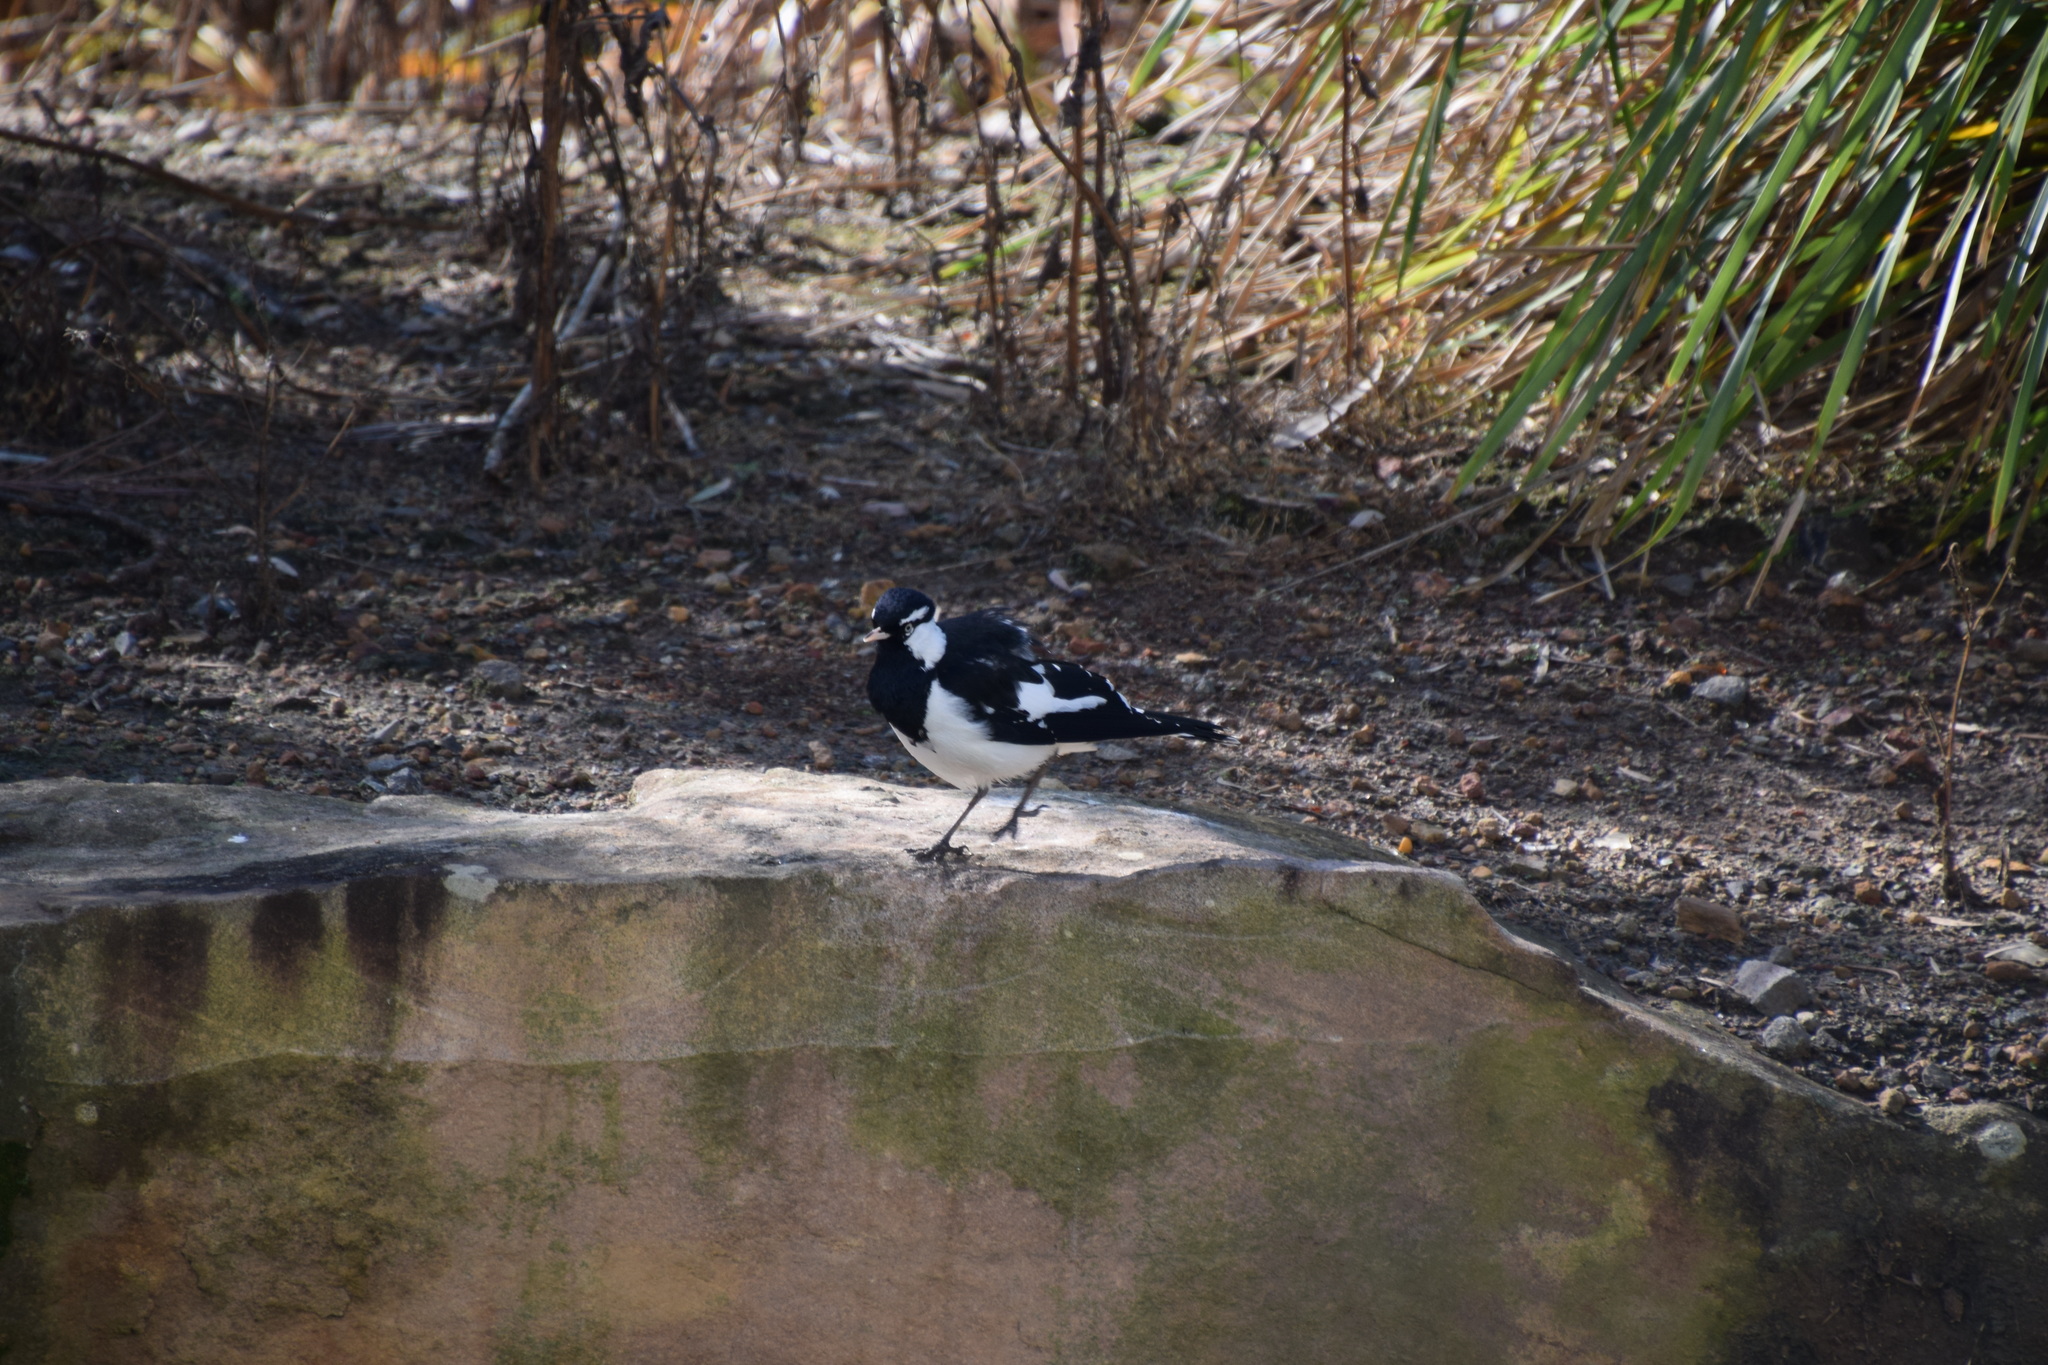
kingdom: Animalia
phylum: Chordata
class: Aves
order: Passeriformes
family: Monarchidae
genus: Grallina
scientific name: Grallina cyanoleuca
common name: Magpie-lark
